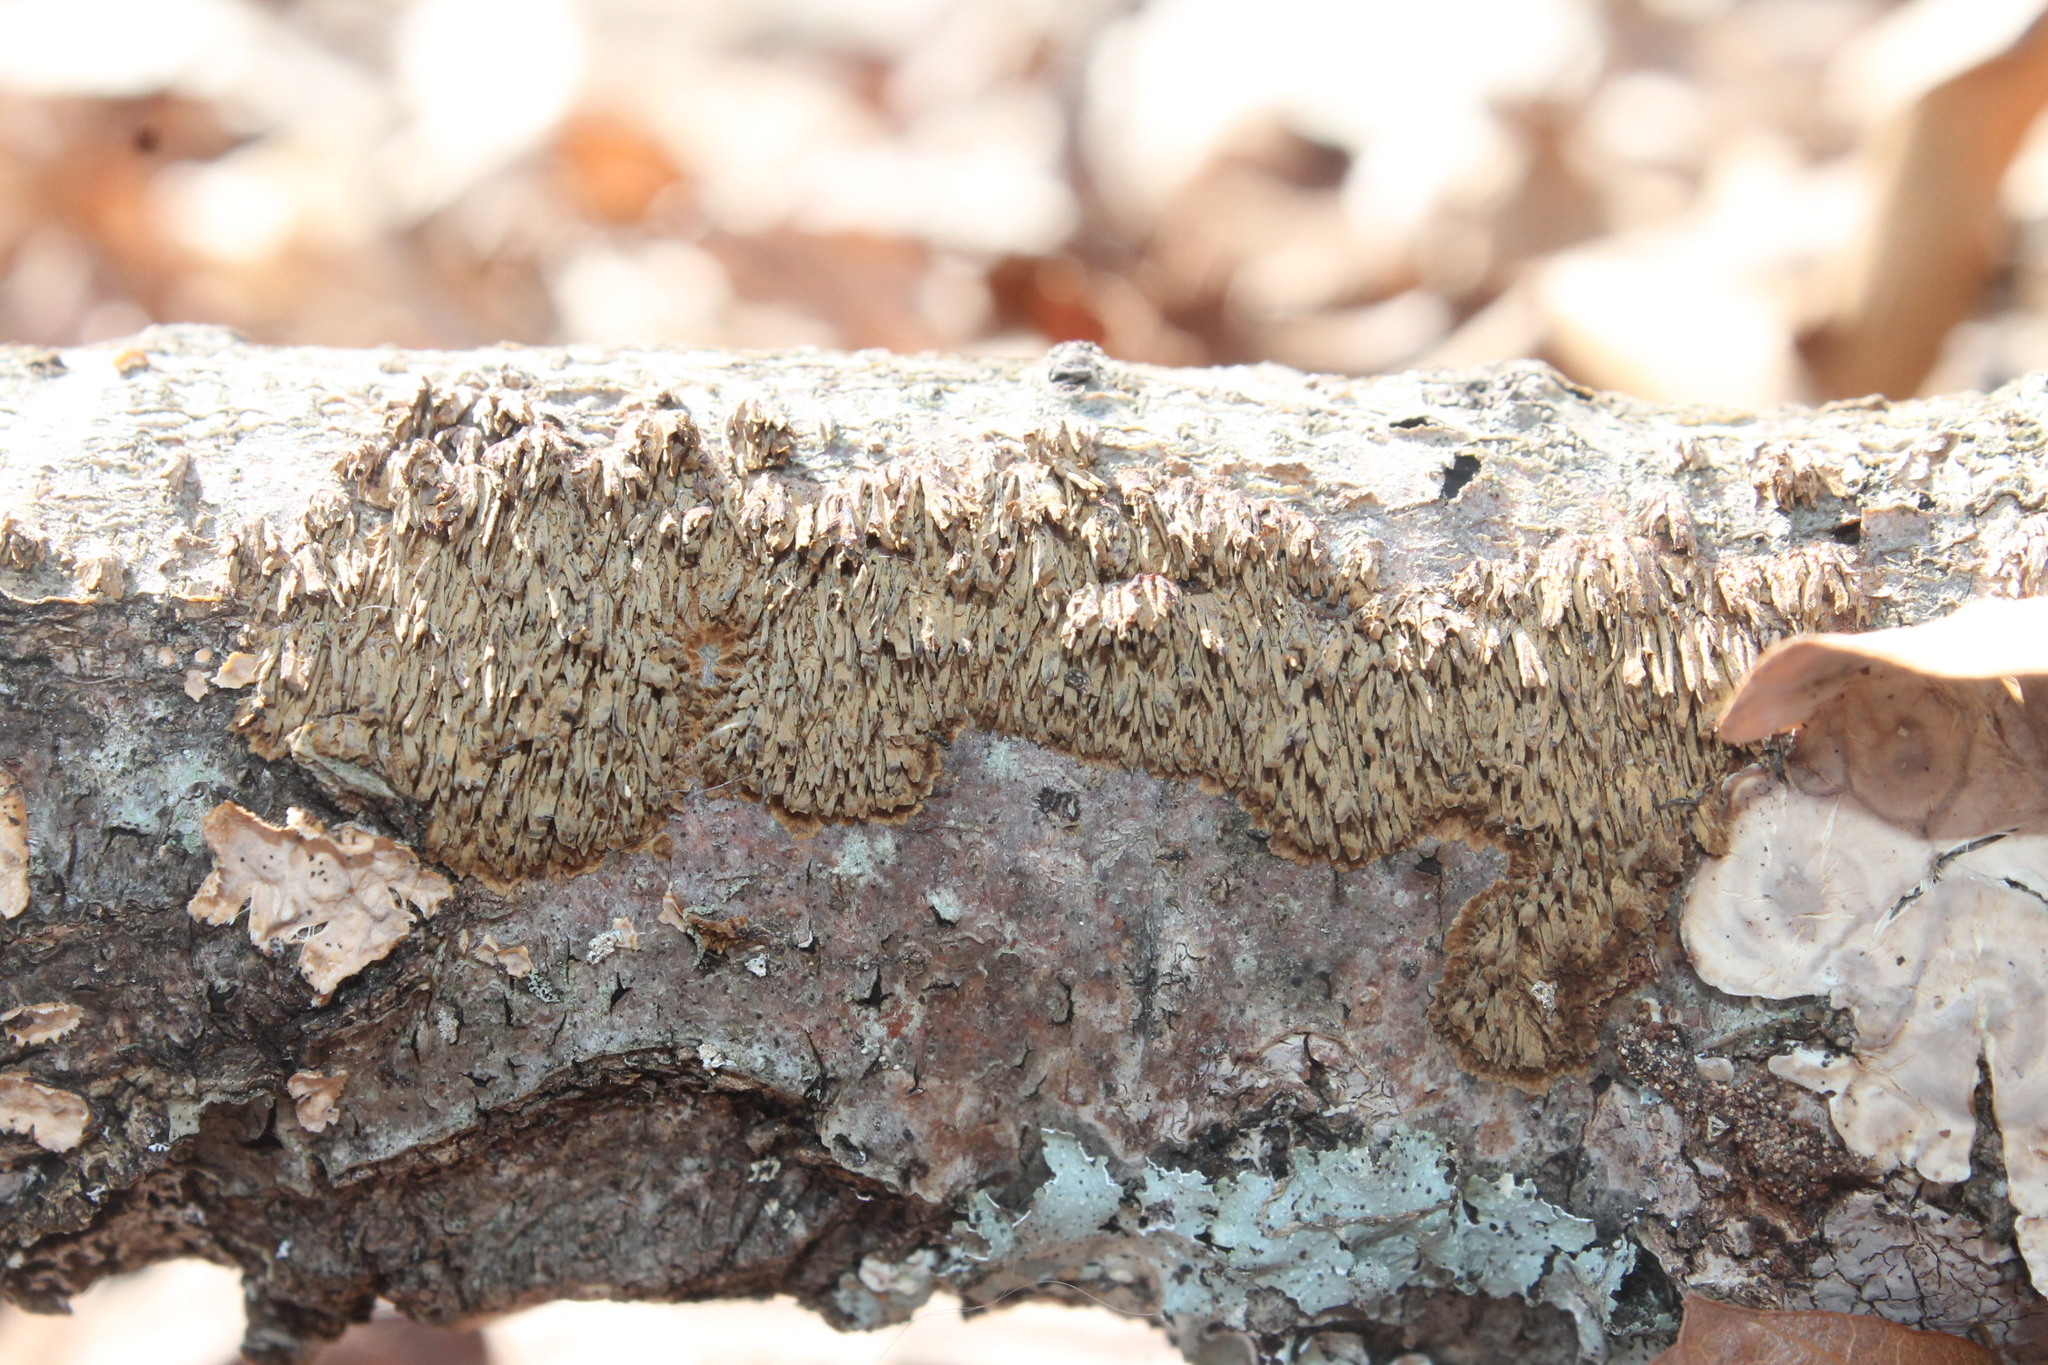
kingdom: Fungi
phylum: Basidiomycota
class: Agaricomycetes
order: Hymenochaetales
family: Hymenochaetaceae
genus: Hydnoporia
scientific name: Hydnoporia olivacea
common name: Brown-toothed crust fungus
